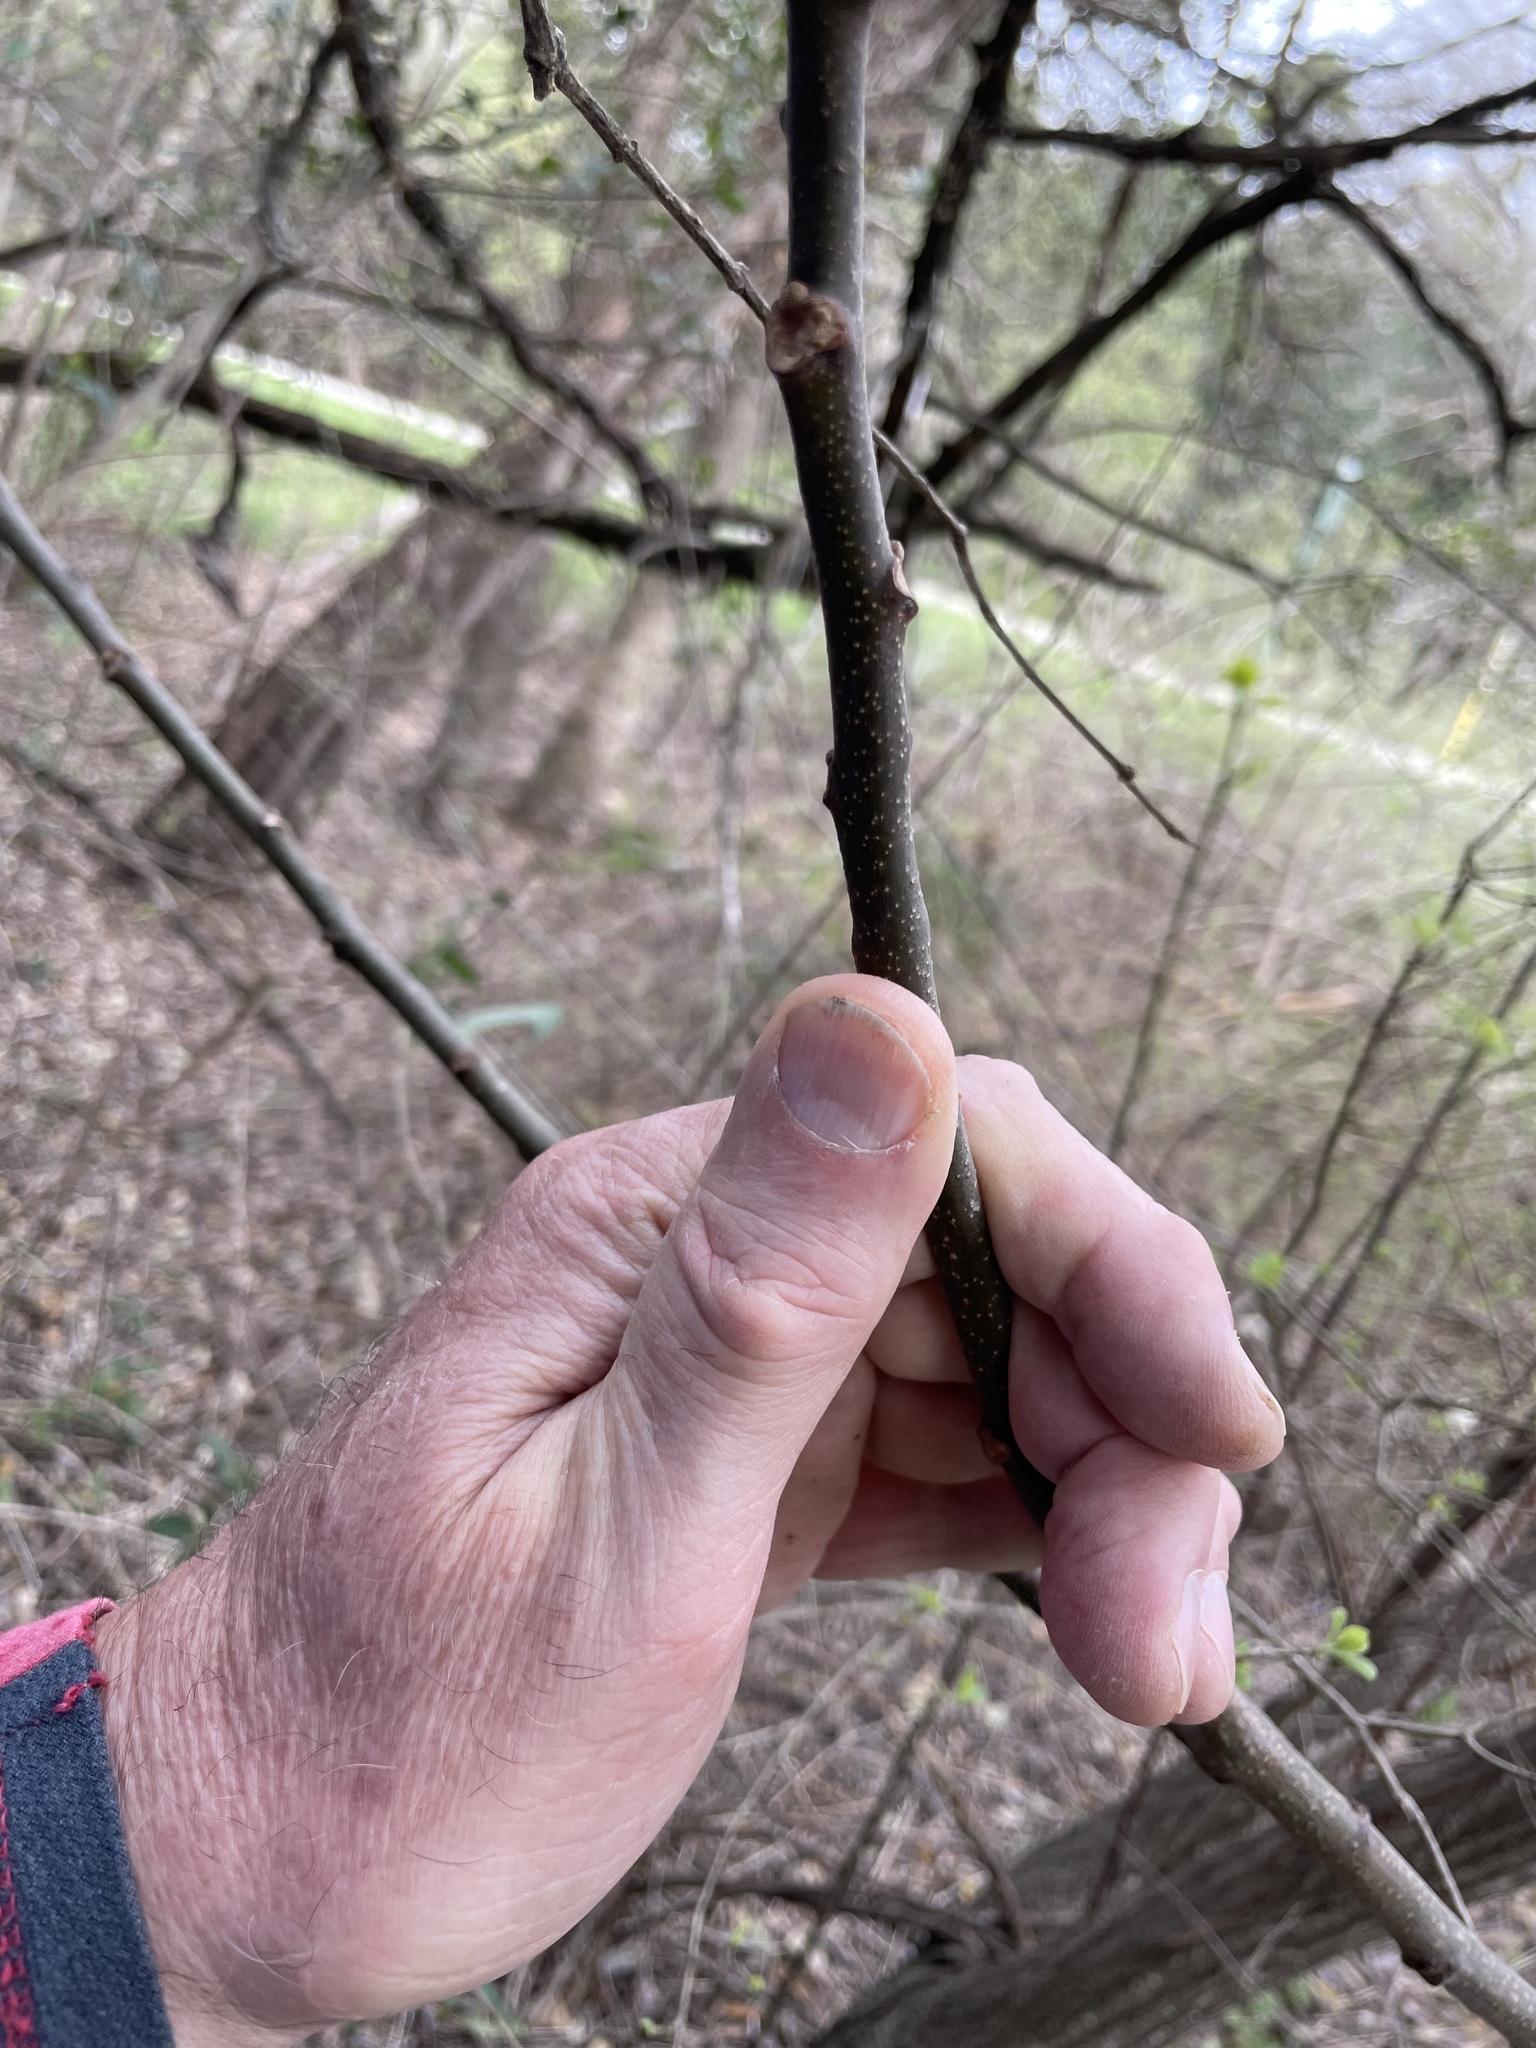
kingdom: Plantae
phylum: Tracheophyta
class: Magnoliopsida
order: Sapindales
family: Meliaceae
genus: Melia
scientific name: Melia azedarach
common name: Chinaberrytree
